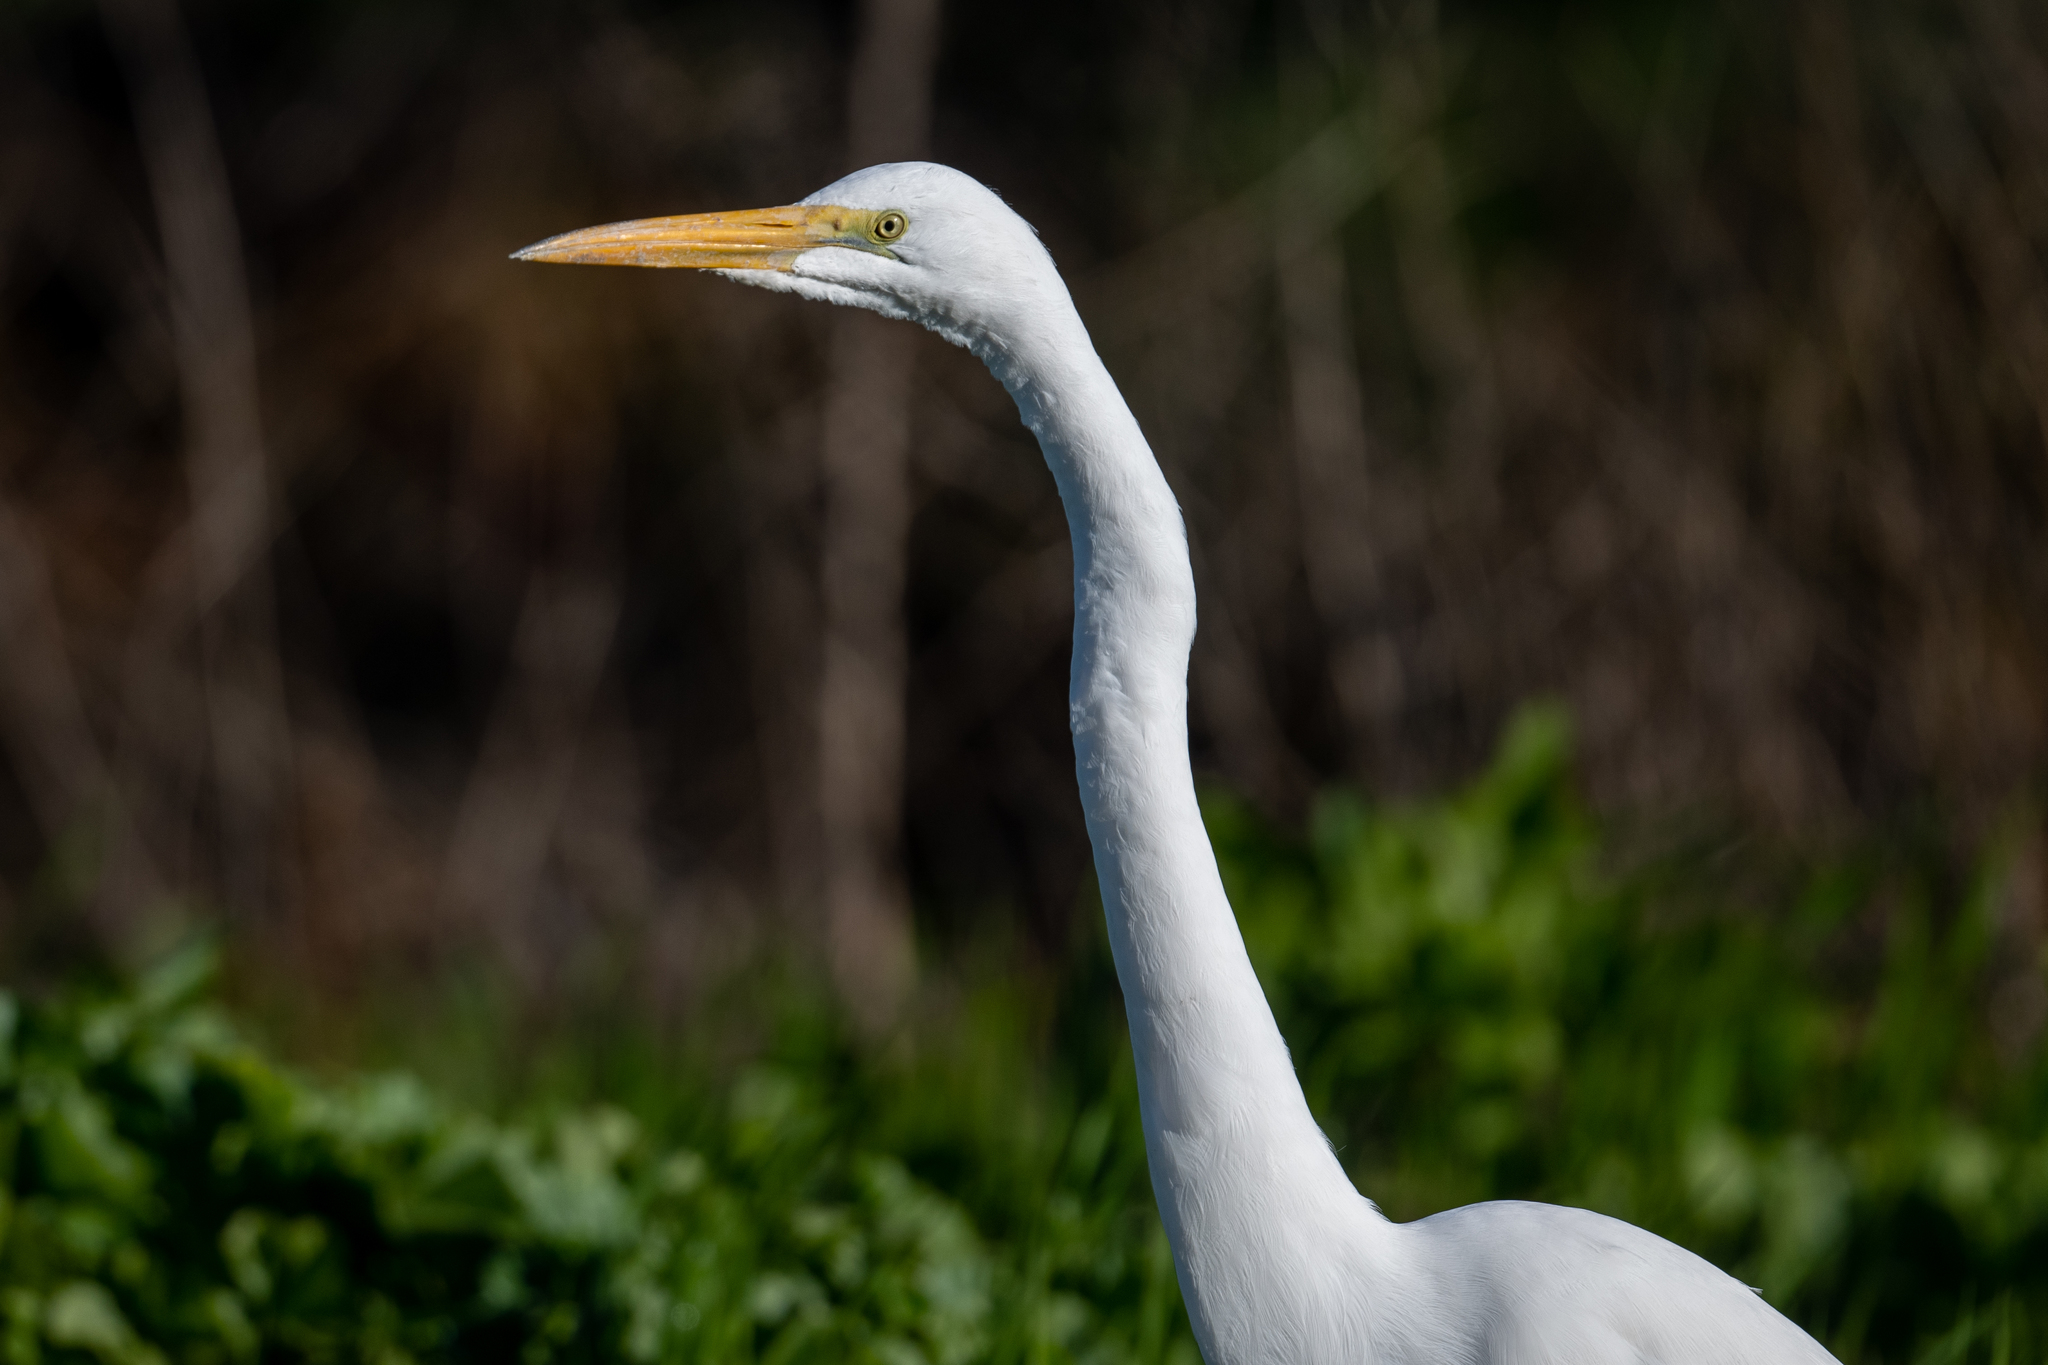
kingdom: Animalia
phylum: Chordata
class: Aves
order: Pelecaniformes
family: Ardeidae
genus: Ardea
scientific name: Ardea alba
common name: Great egret
